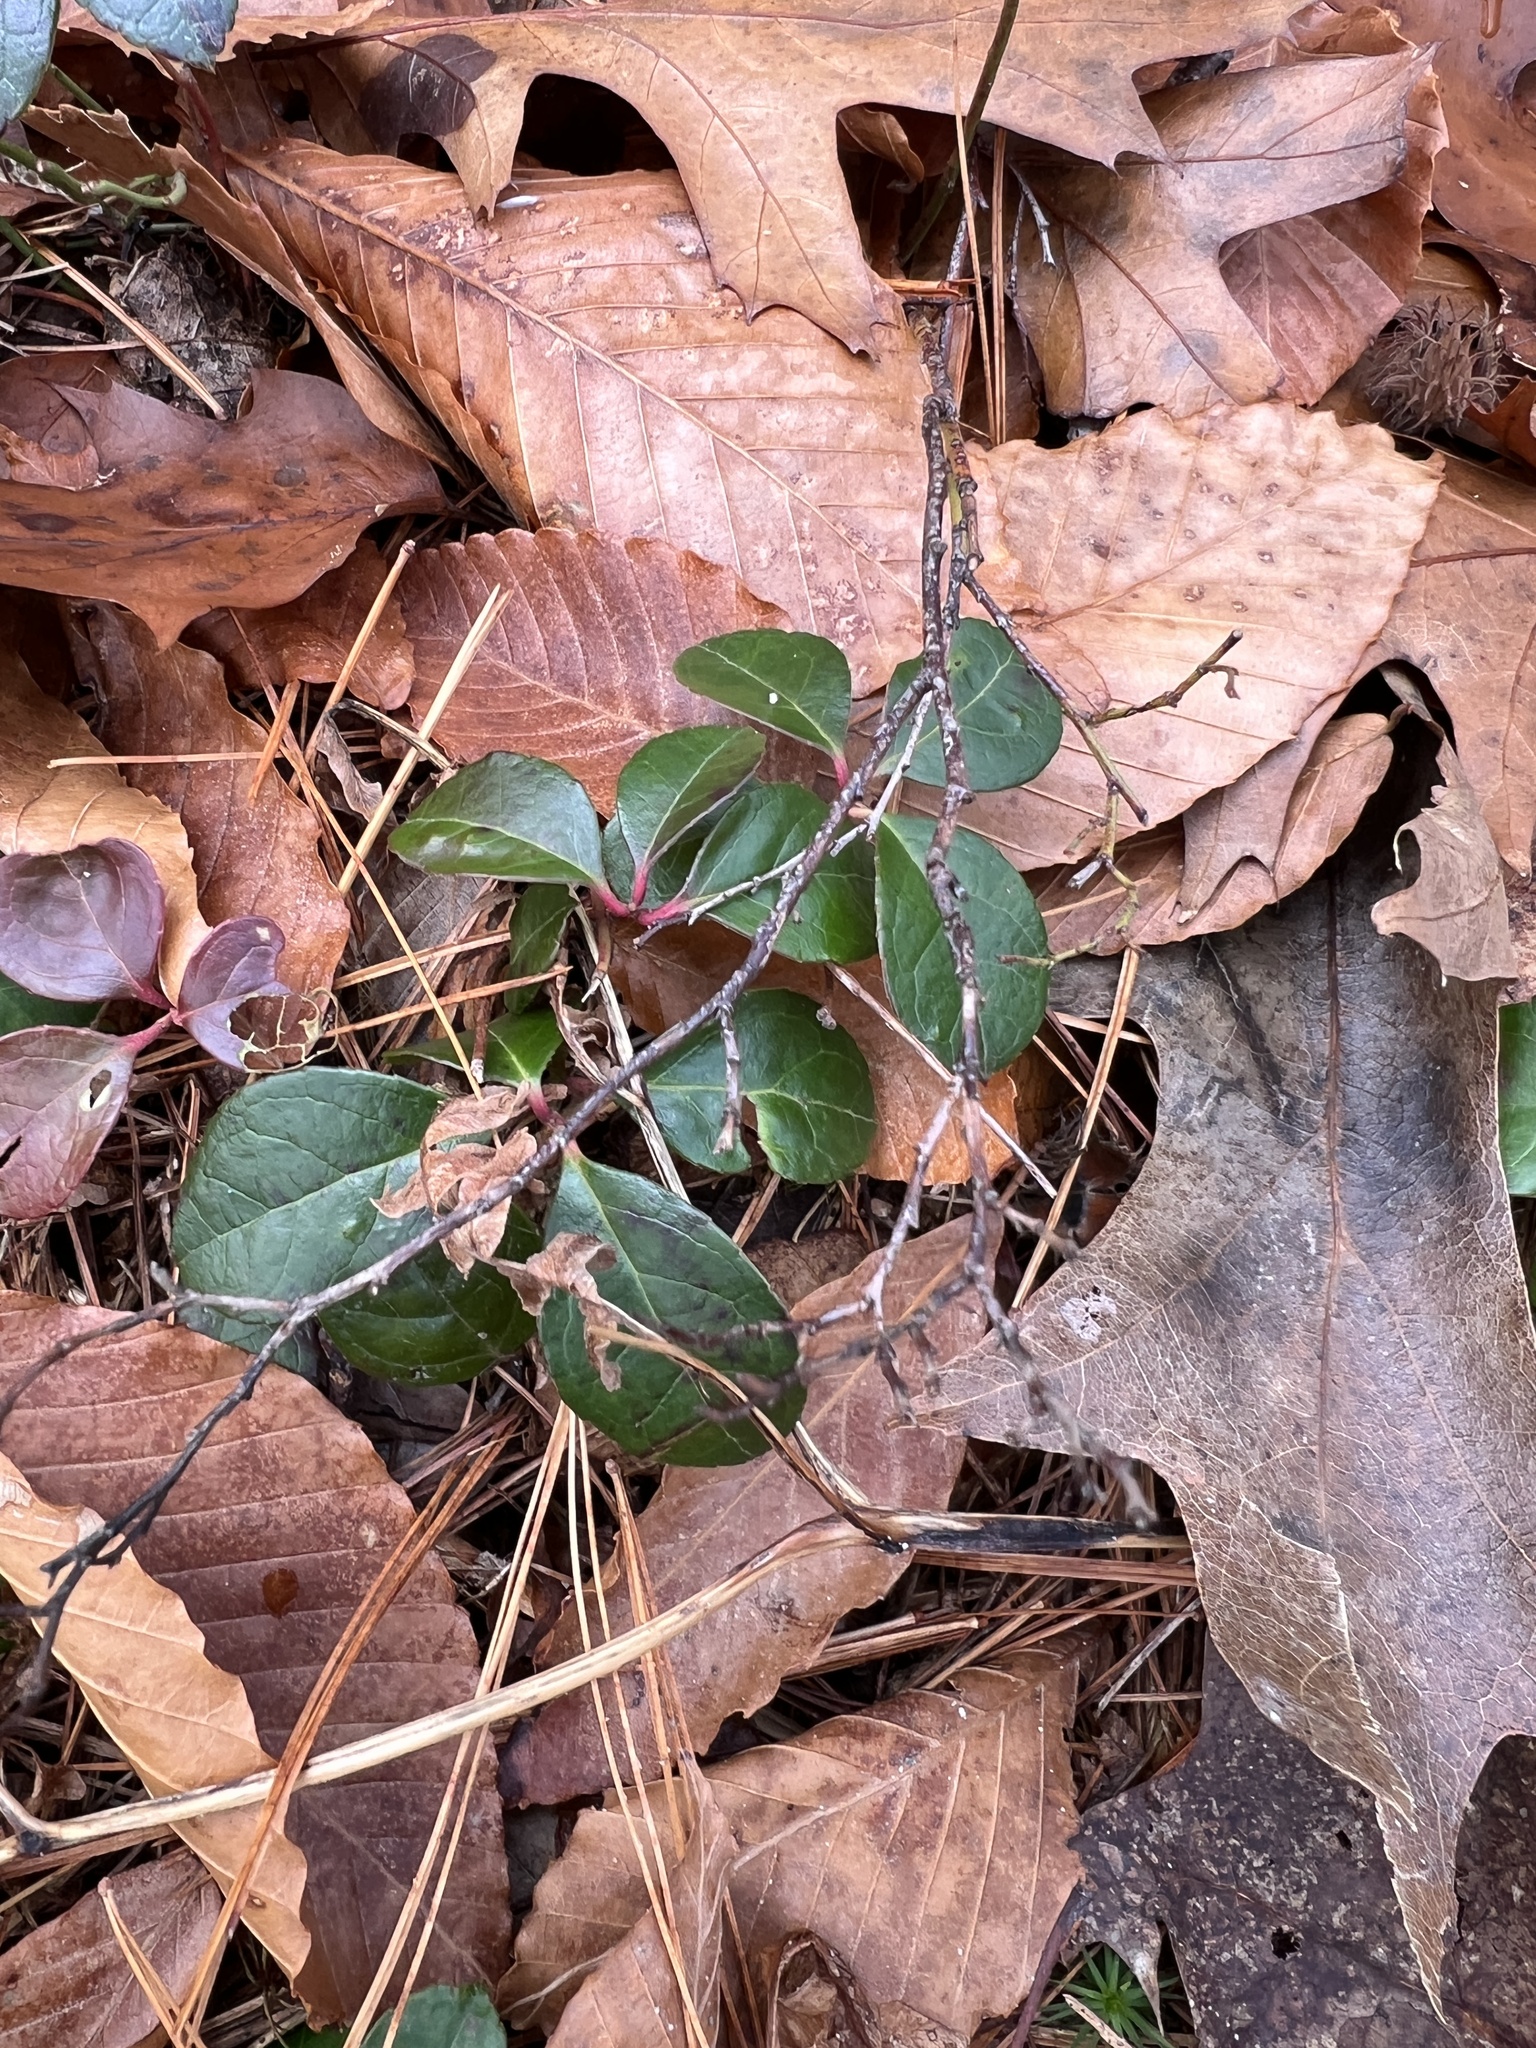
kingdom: Plantae
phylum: Tracheophyta
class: Magnoliopsida
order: Ericales
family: Ericaceae
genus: Gaultheria
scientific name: Gaultheria procumbens
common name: Checkerberry
